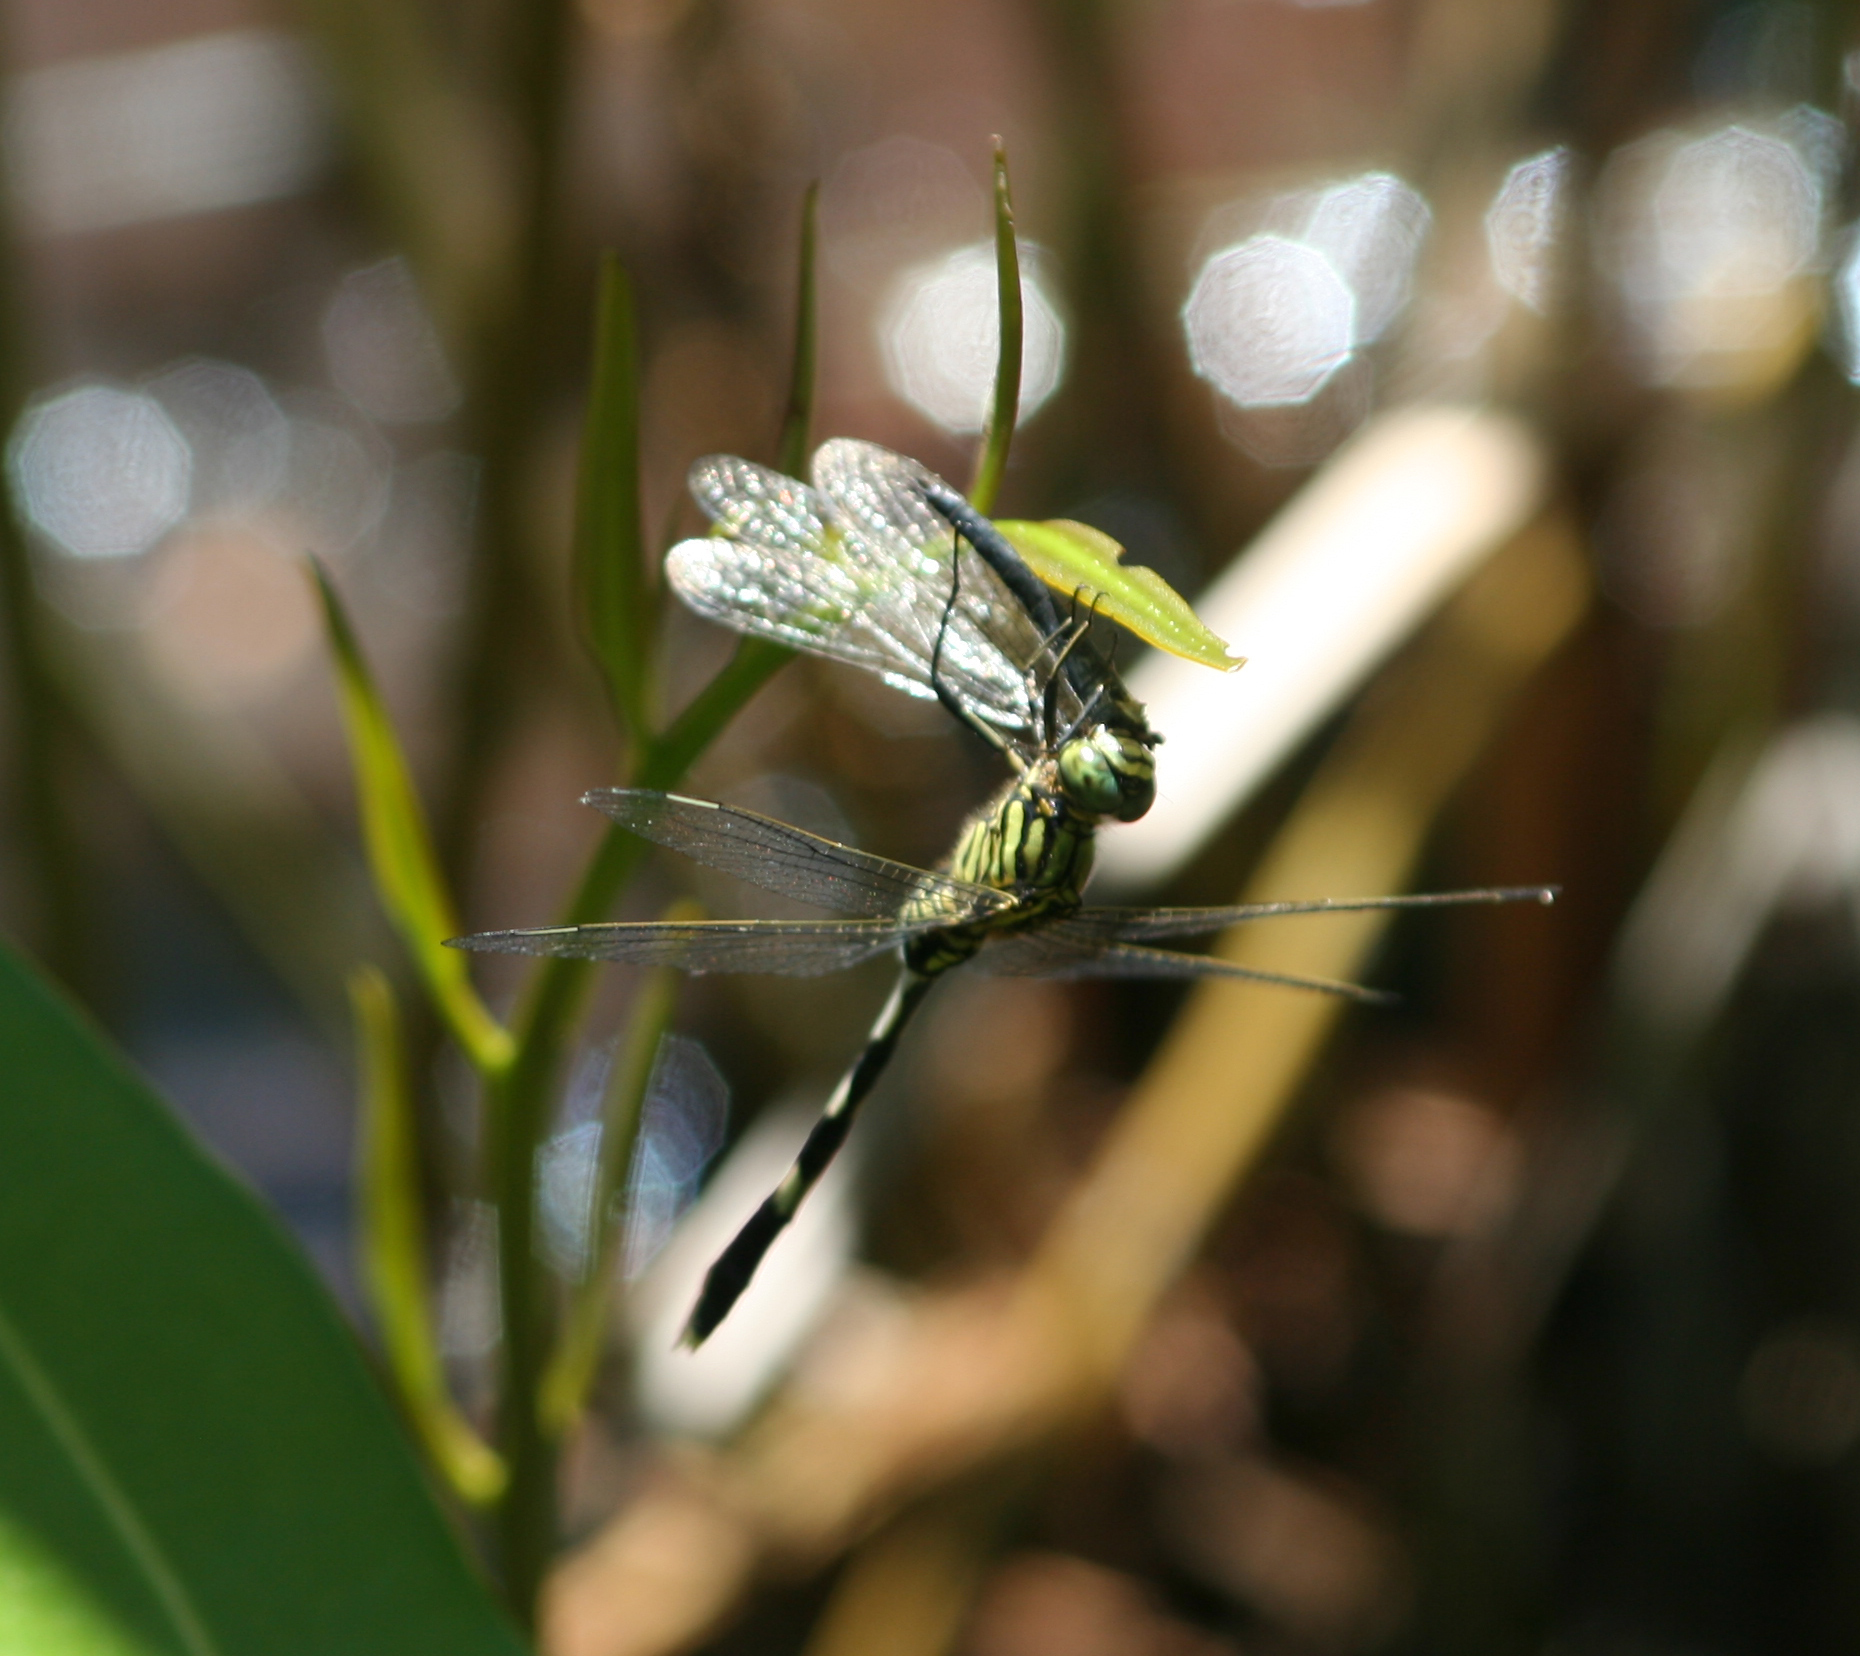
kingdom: Animalia
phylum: Arthropoda
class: Insecta
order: Odonata
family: Libellulidae
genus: Orthetrum
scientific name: Orthetrum sabina
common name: Slender skimmer
